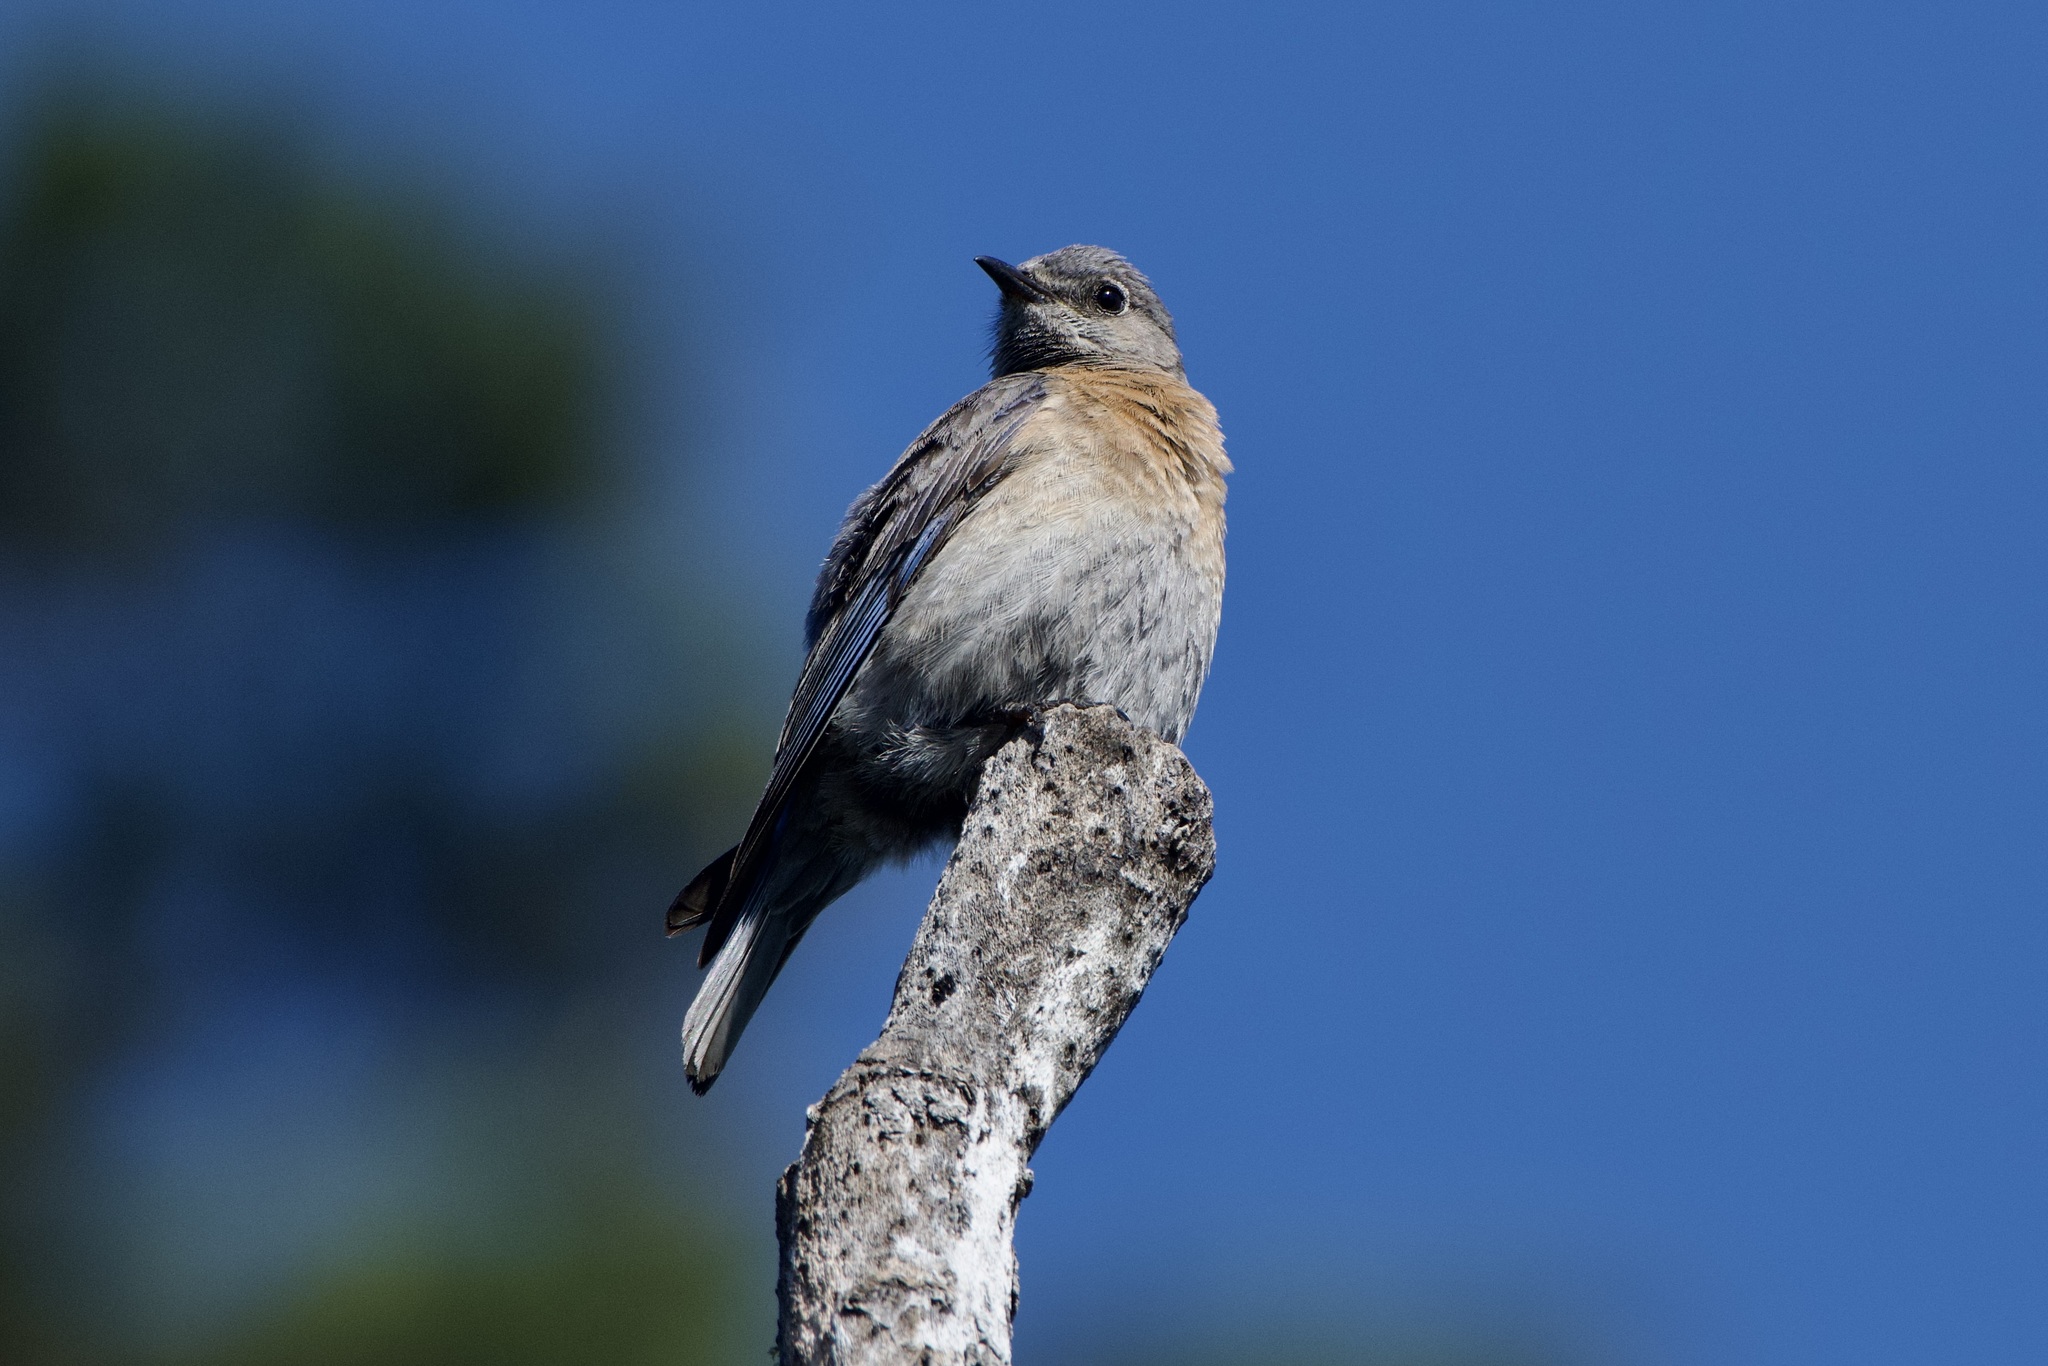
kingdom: Animalia
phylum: Chordata
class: Aves
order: Passeriformes
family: Turdidae
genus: Sialia
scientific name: Sialia mexicana
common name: Western bluebird
